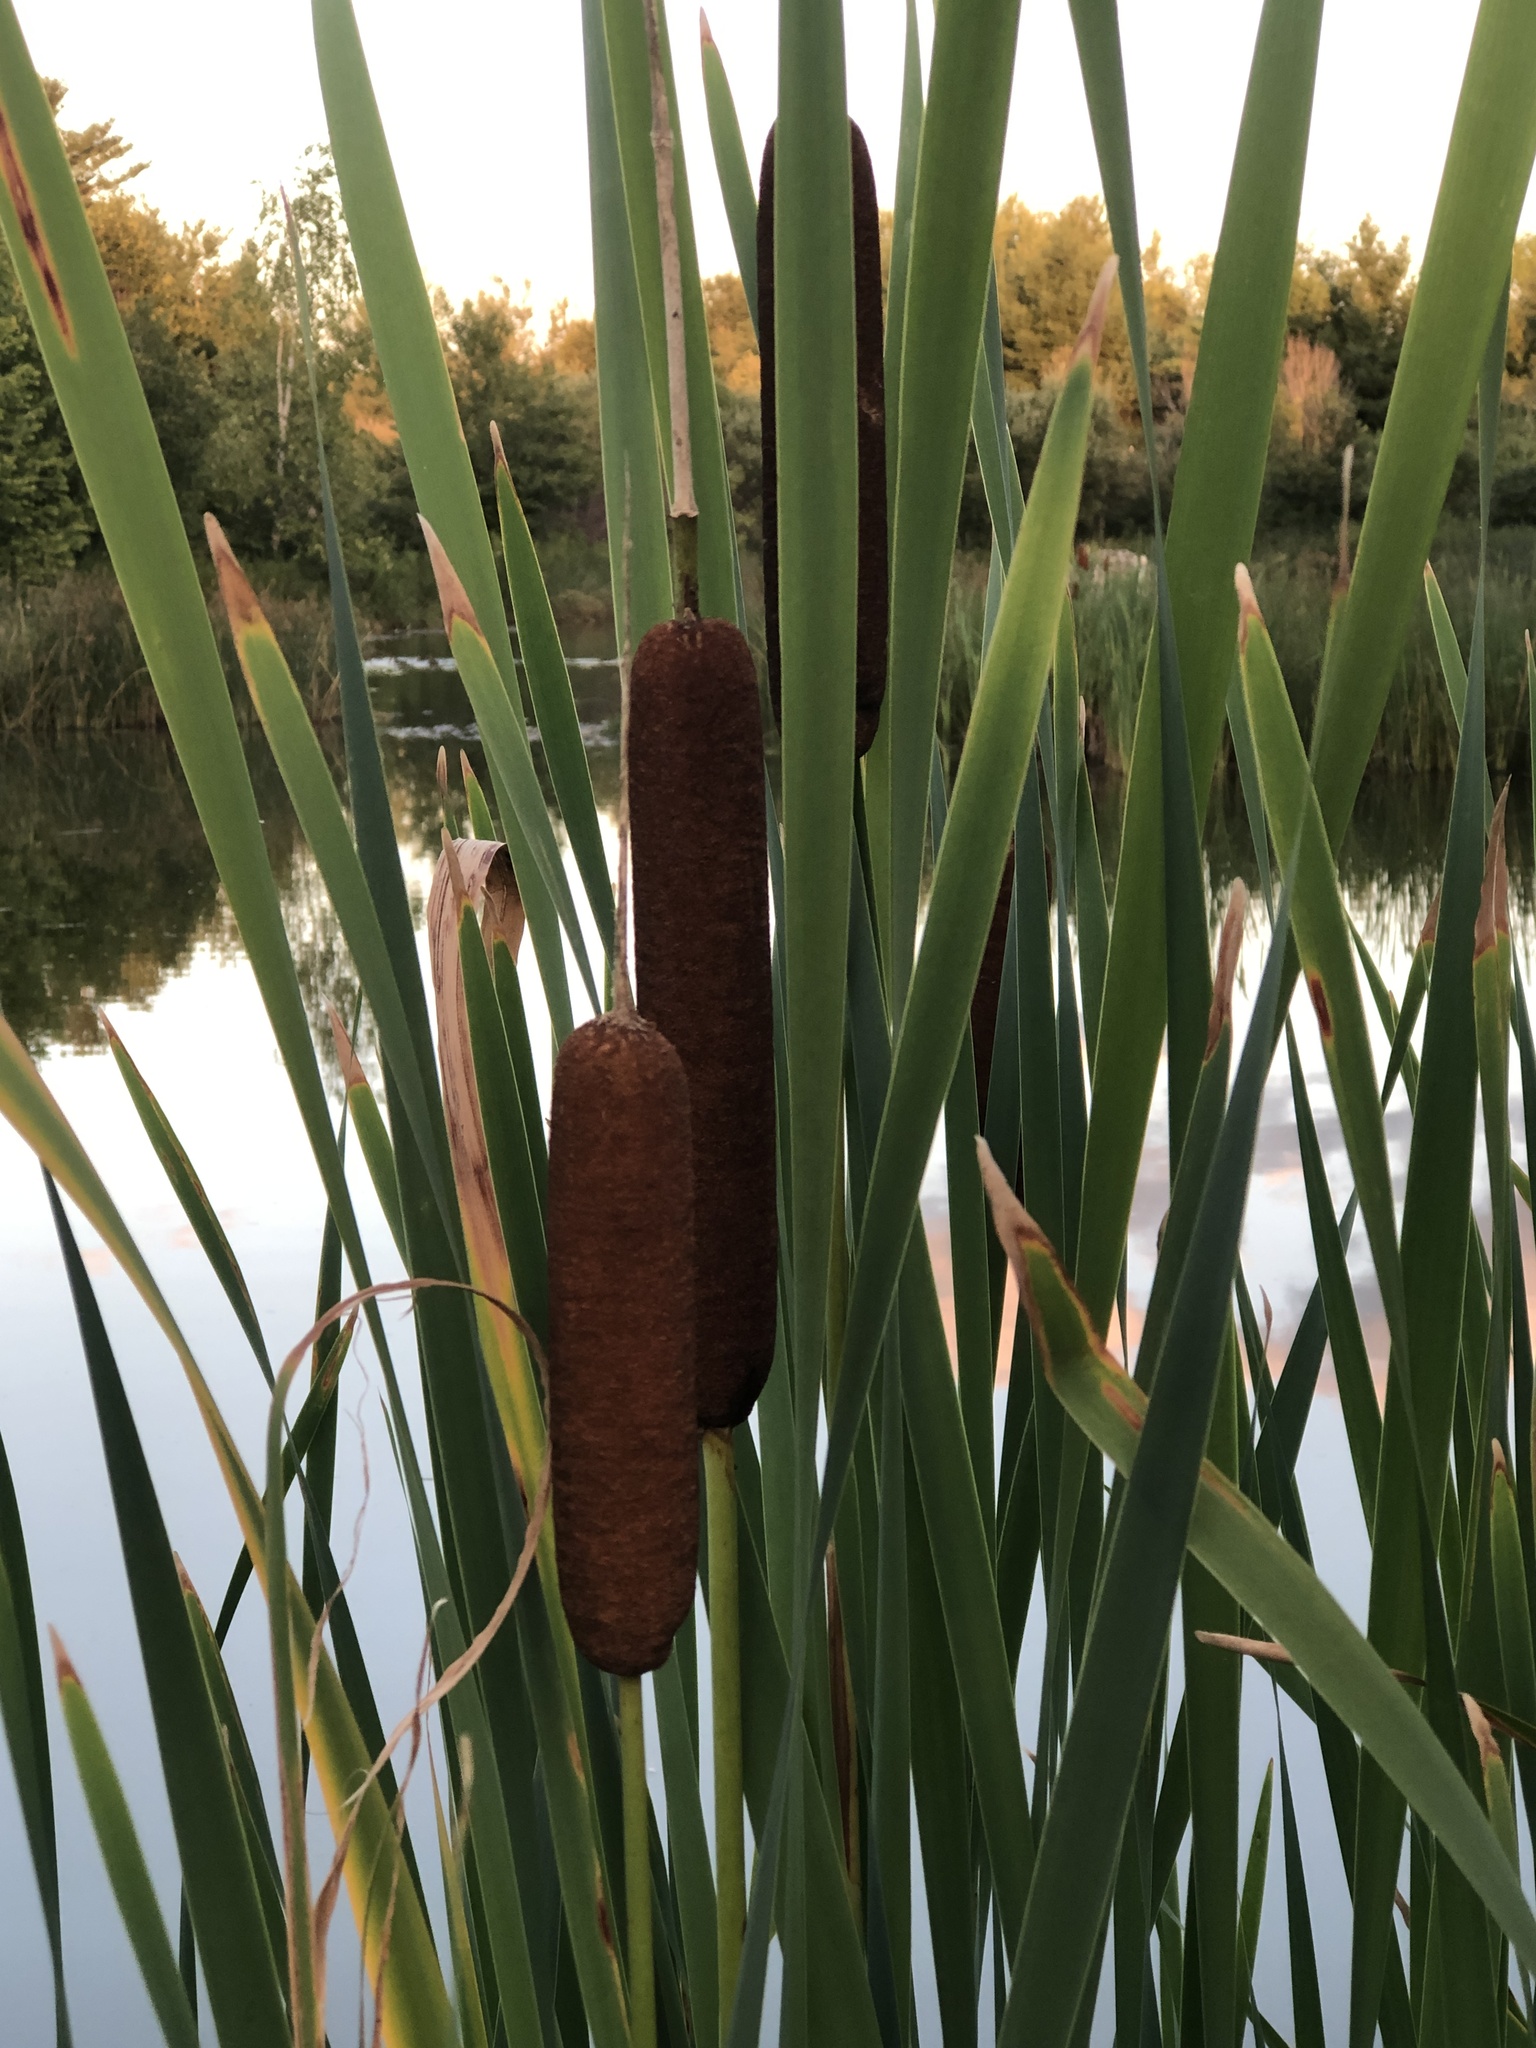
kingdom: Plantae
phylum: Tracheophyta
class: Liliopsida
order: Poales
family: Typhaceae
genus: Typha
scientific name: Typha latifolia
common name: Broadleaf cattail
